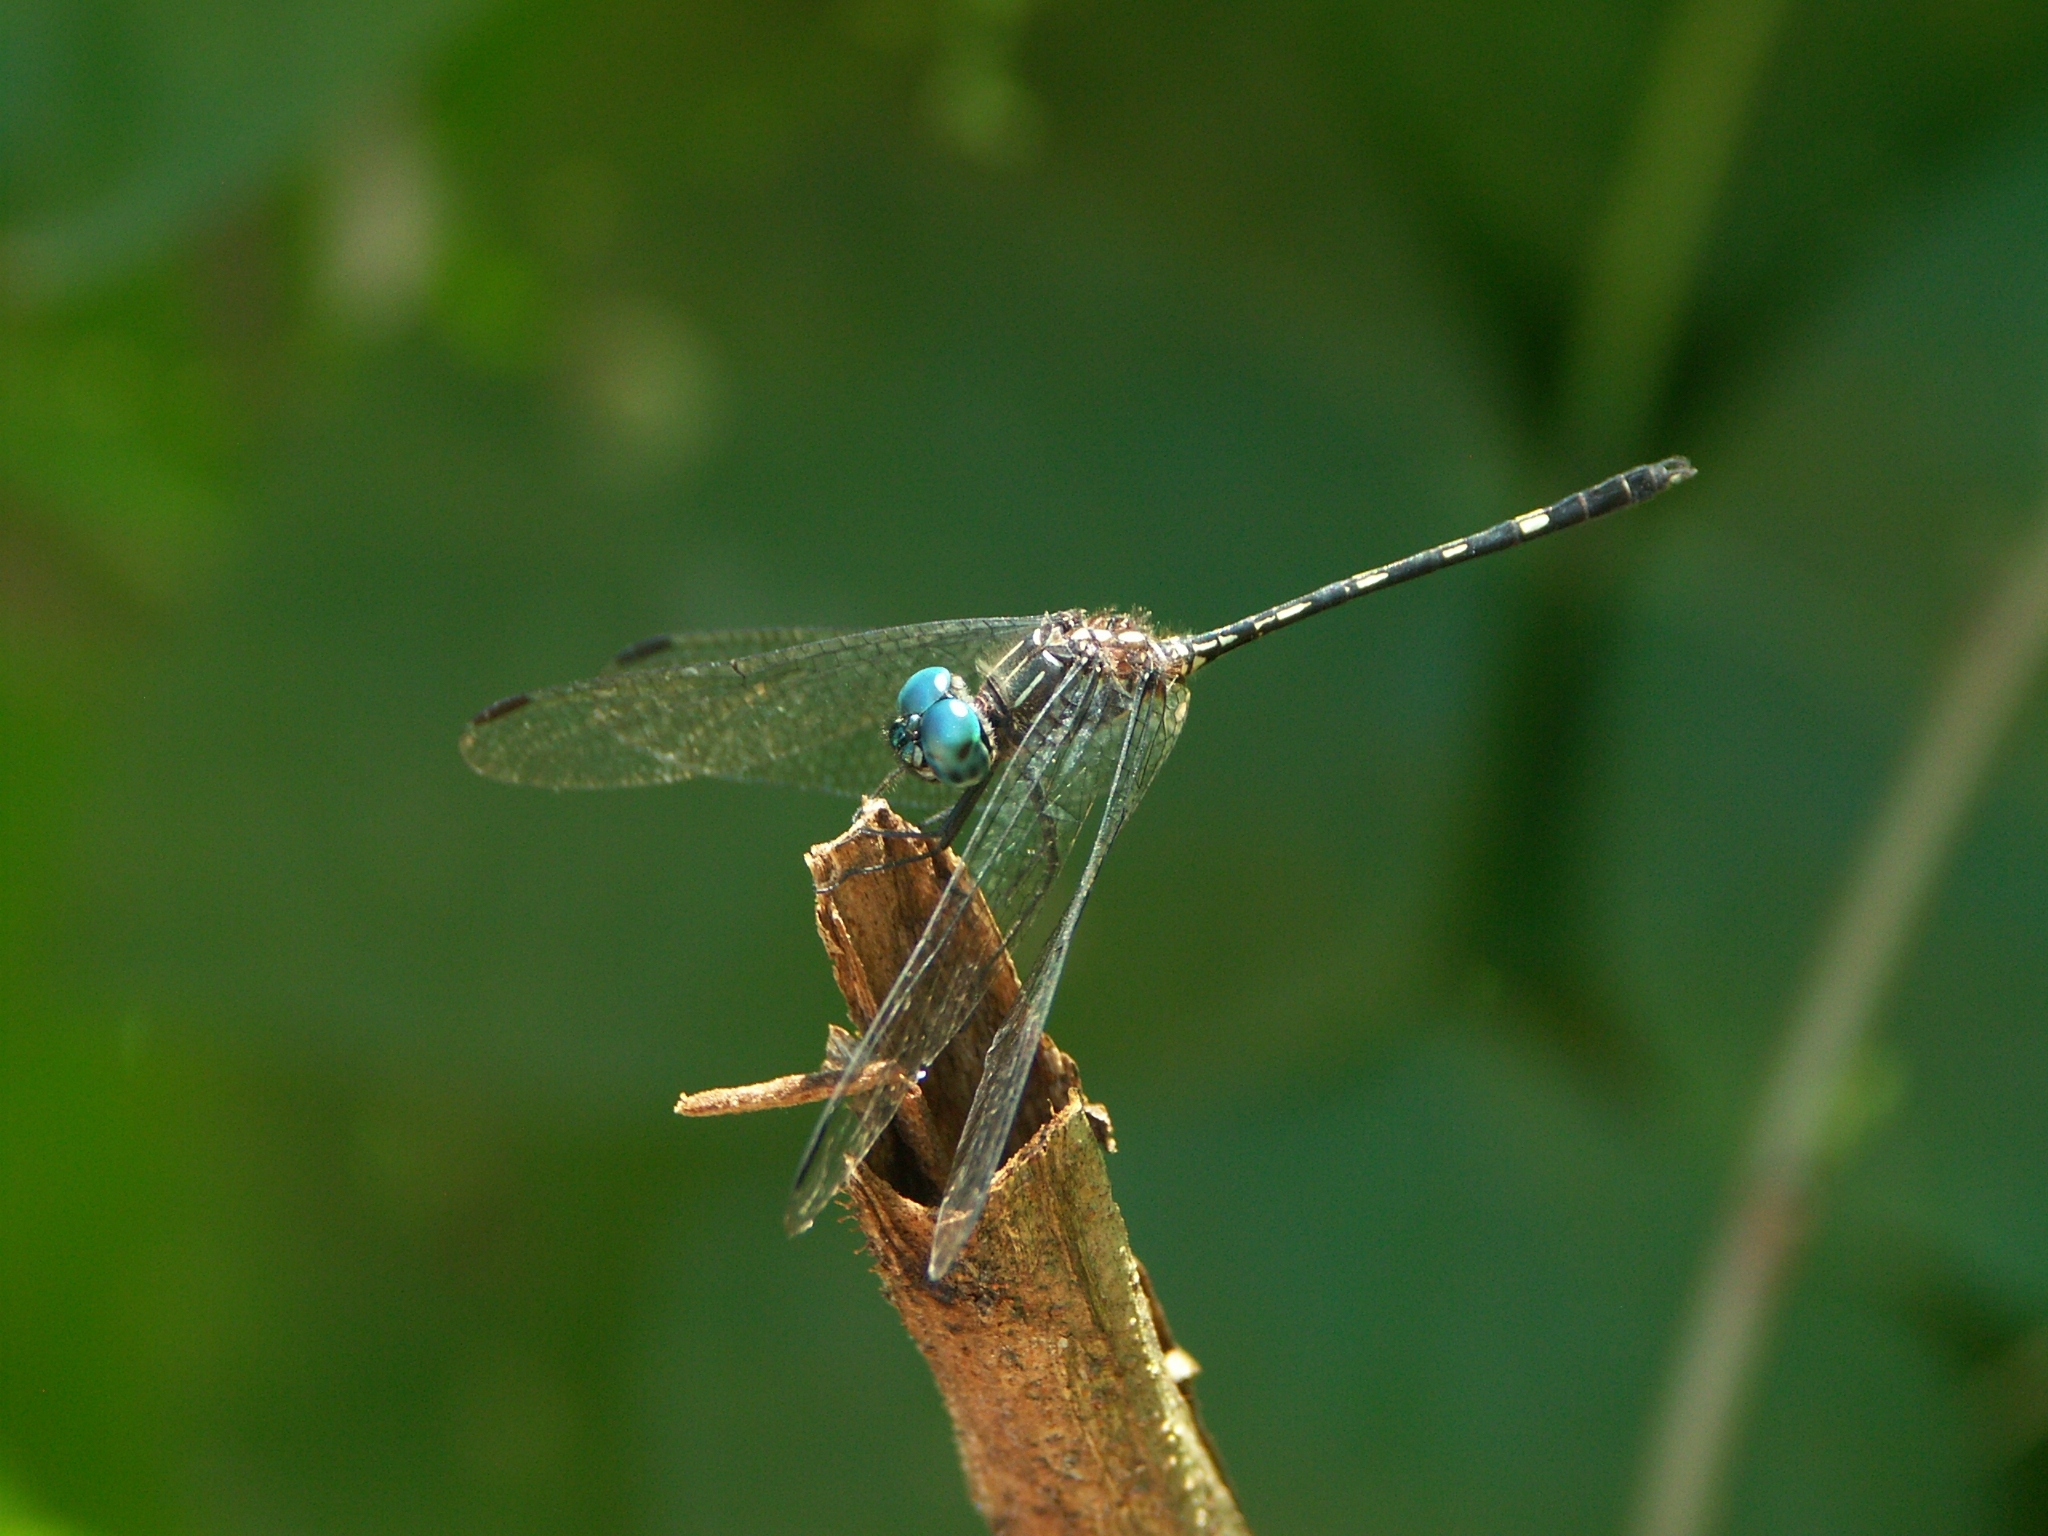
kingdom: Animalia
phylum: Arthropoda
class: Insecta
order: Odonata
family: Libellulidae
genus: Dythemis
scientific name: Dythemis nigra
